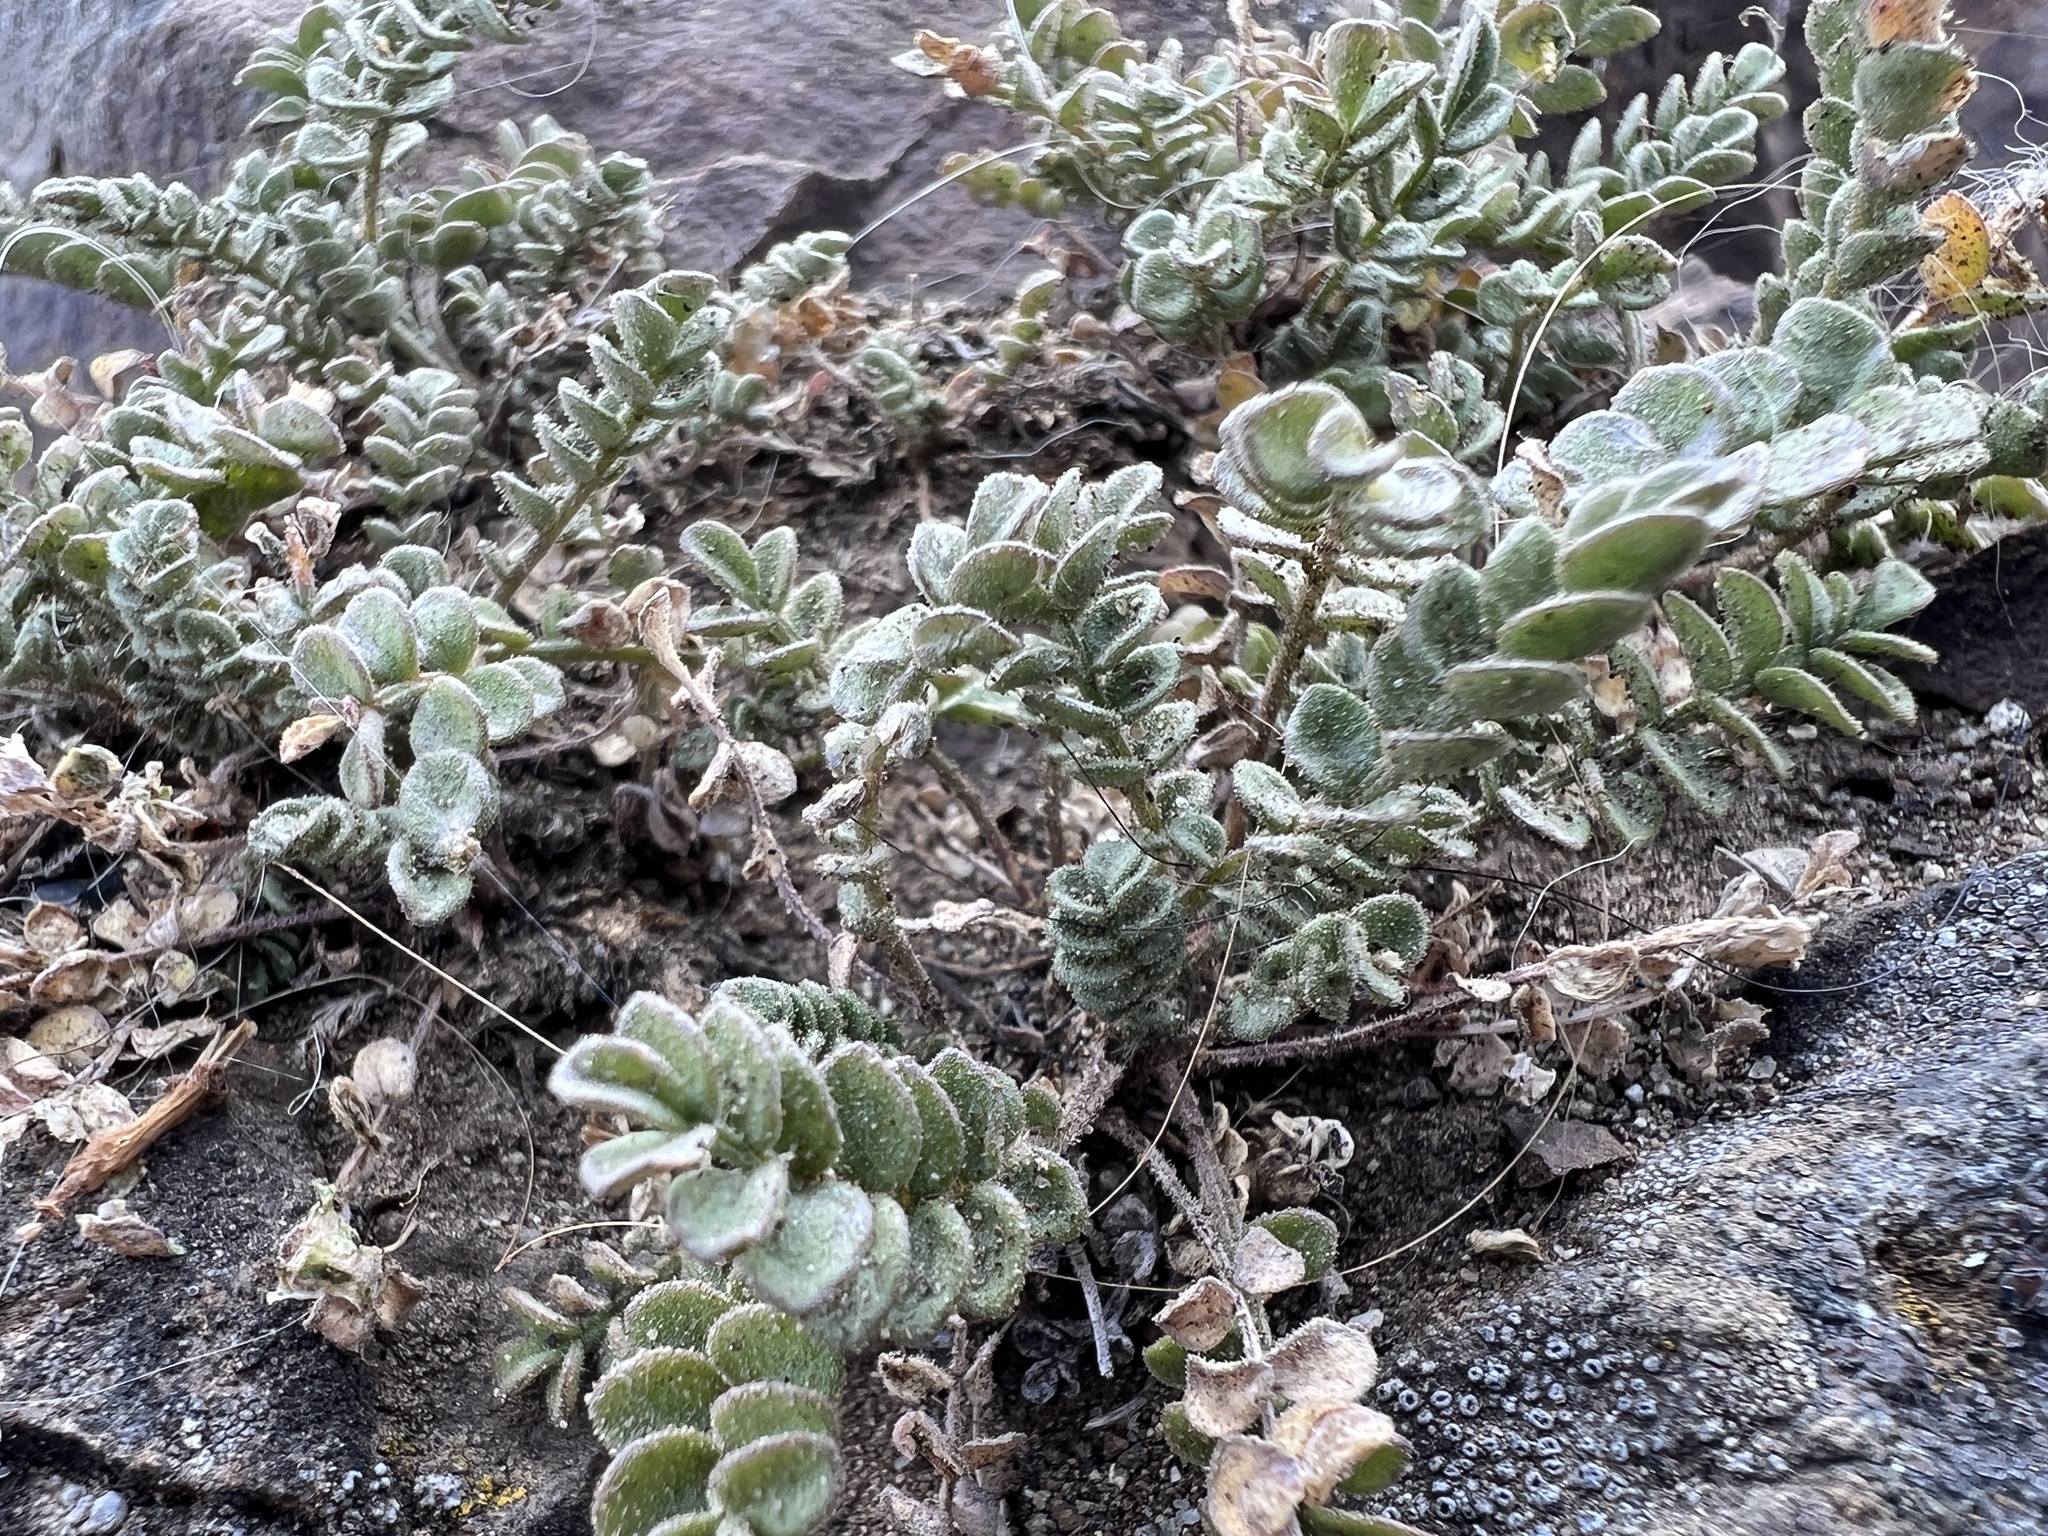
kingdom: Plantae
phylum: Tracheophyta
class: Magnoliopsida
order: Ericales
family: Polemoniaceae
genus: Polemonium
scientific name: Polemonium pulcherrimum
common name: Short jacob's-ladder
